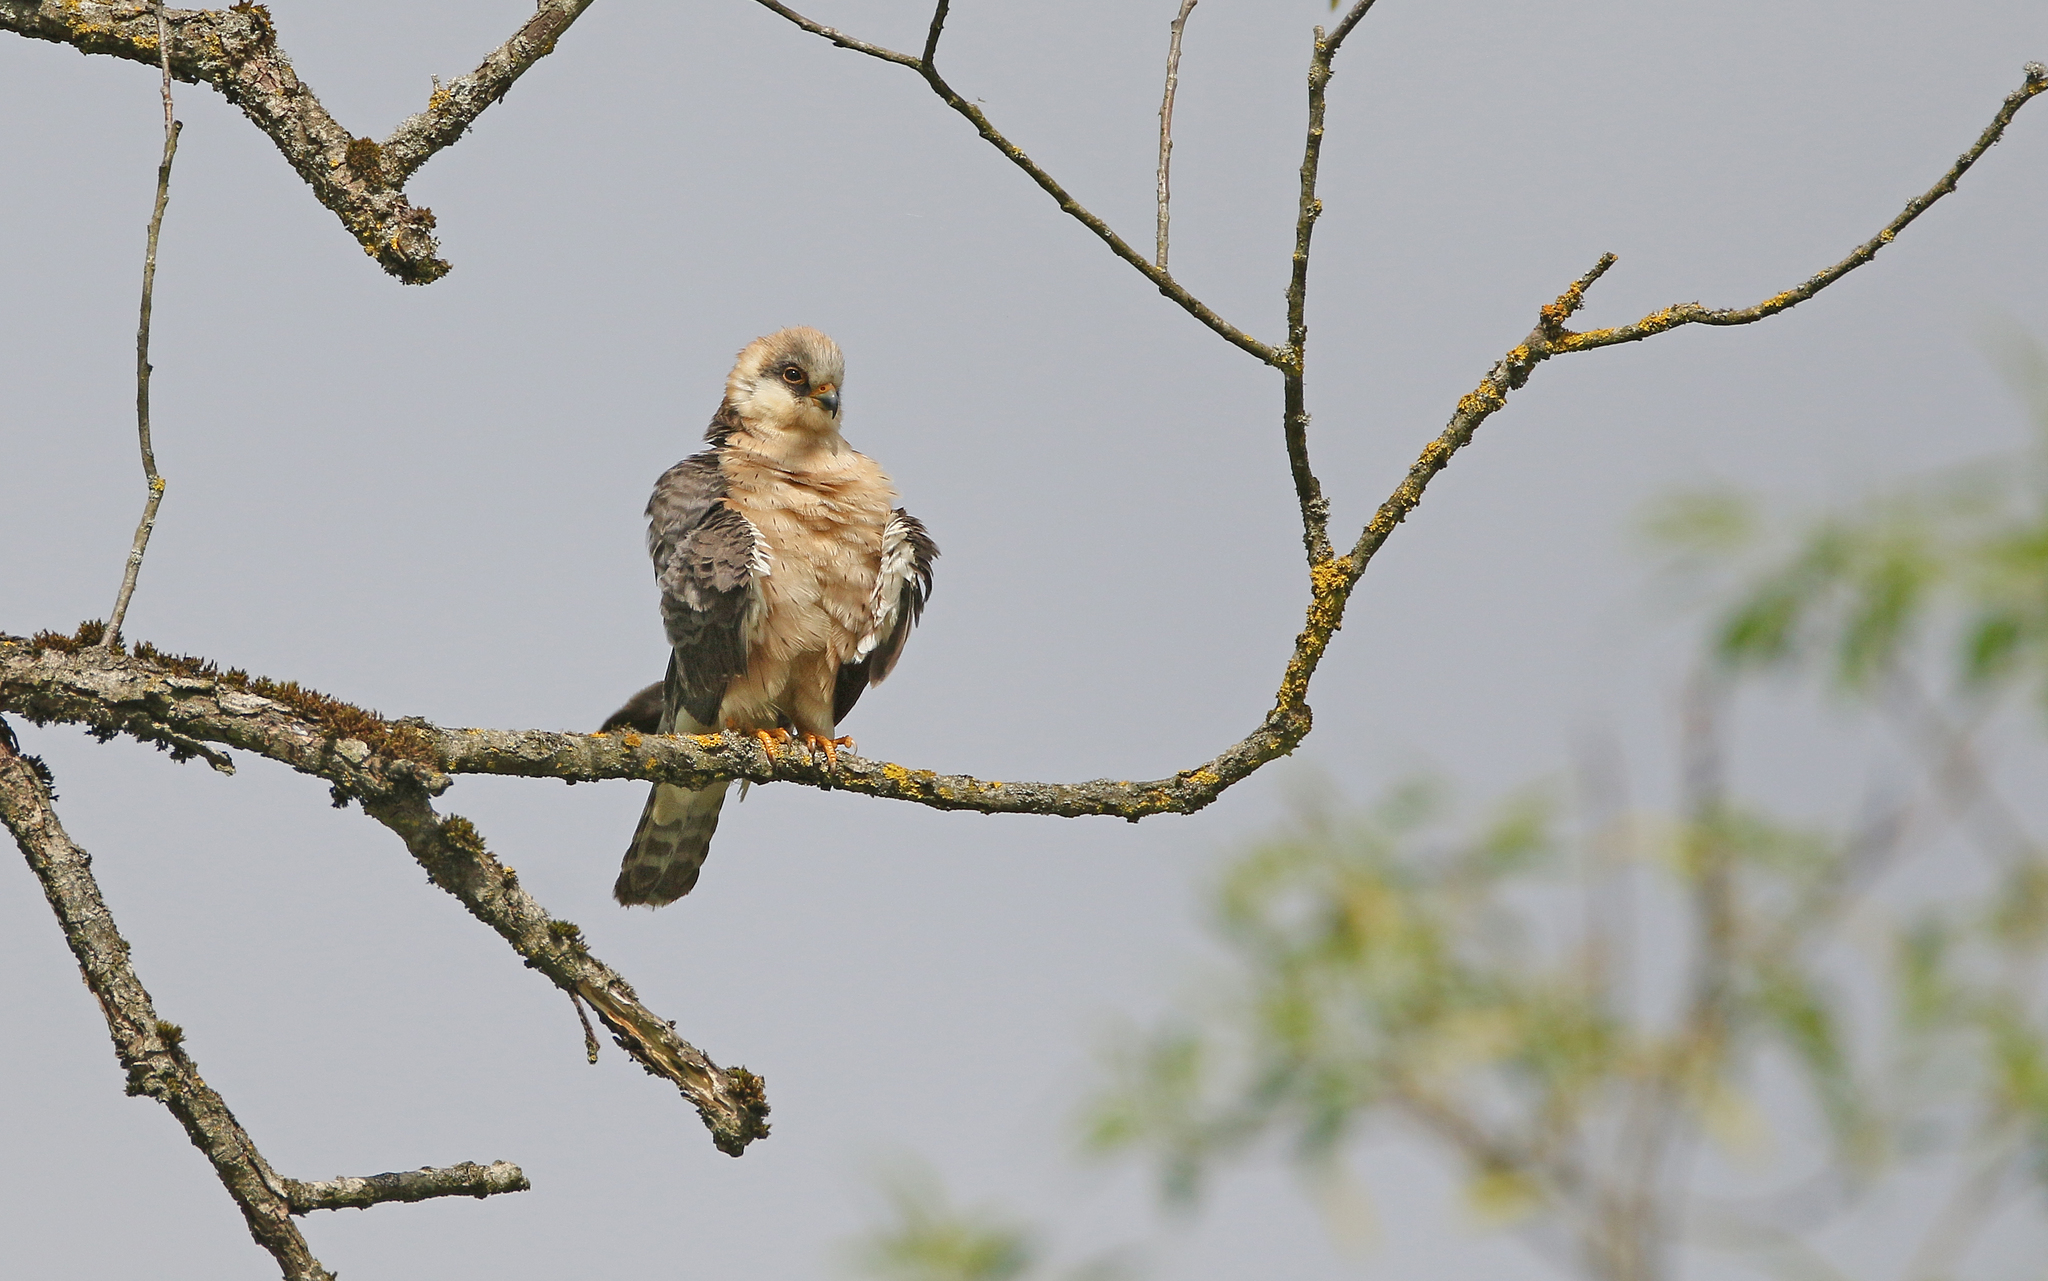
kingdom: Animalia
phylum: Chordata
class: Aves
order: Falconiformes
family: Falconidae
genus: Falco
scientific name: Falco vespertinus
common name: Red-footed falcon
